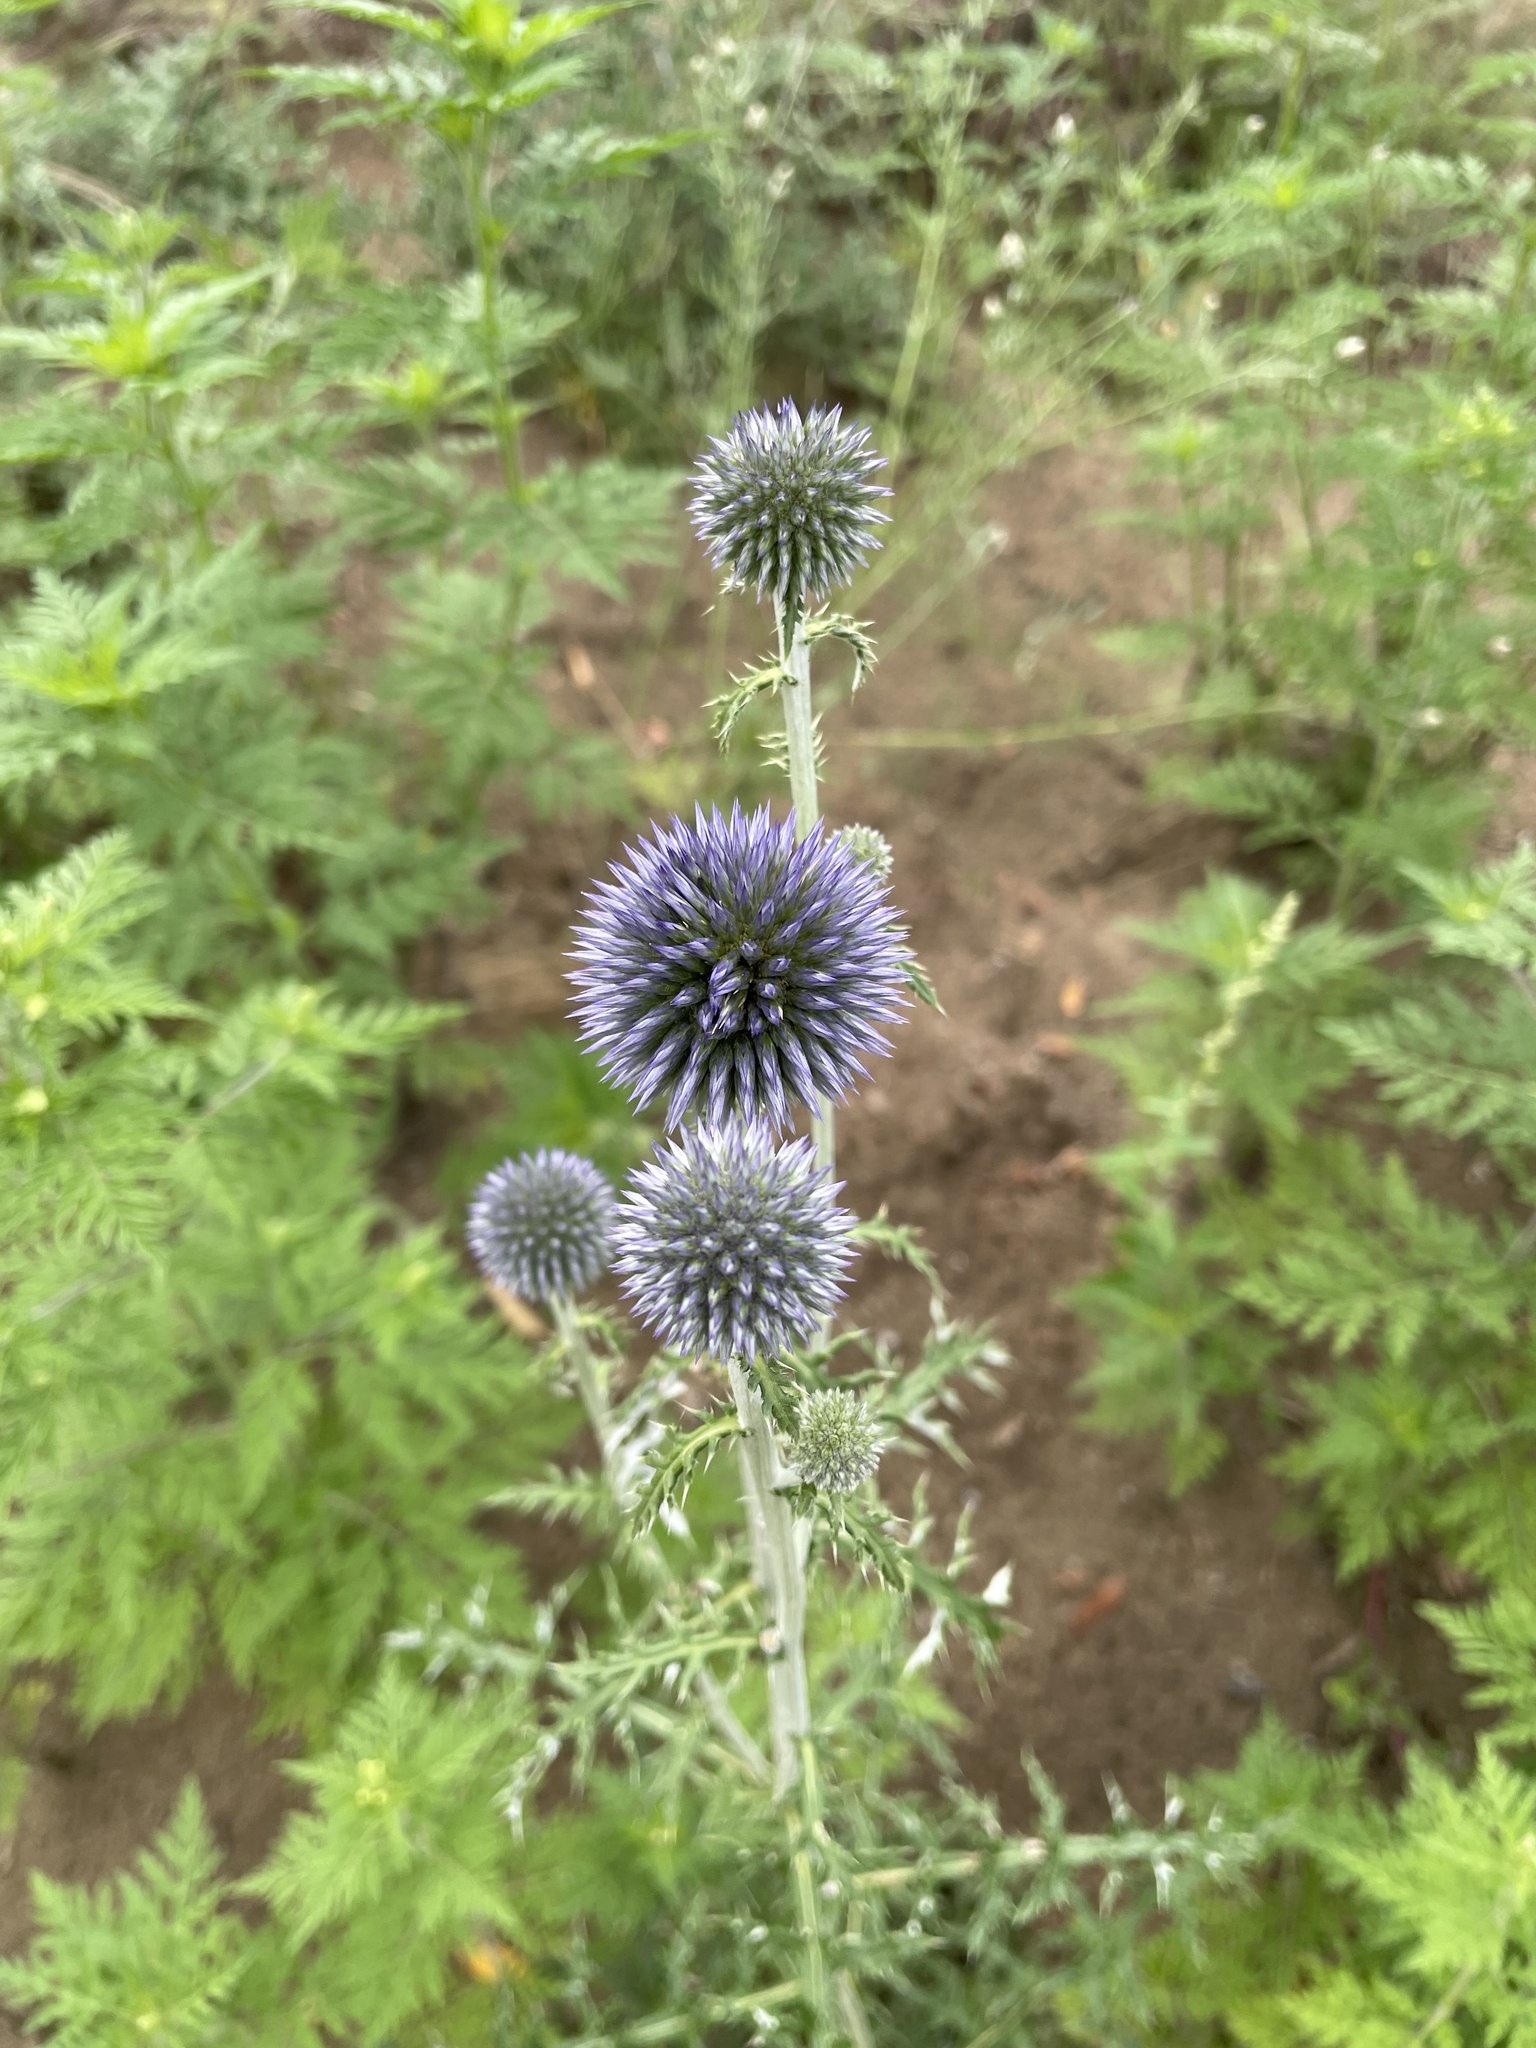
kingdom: Plantae
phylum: Tracheophyta
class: Magnoliopsida
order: Asterales
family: Asteraceae
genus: Echinops
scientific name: Echinops ritro
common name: Globe thistle
